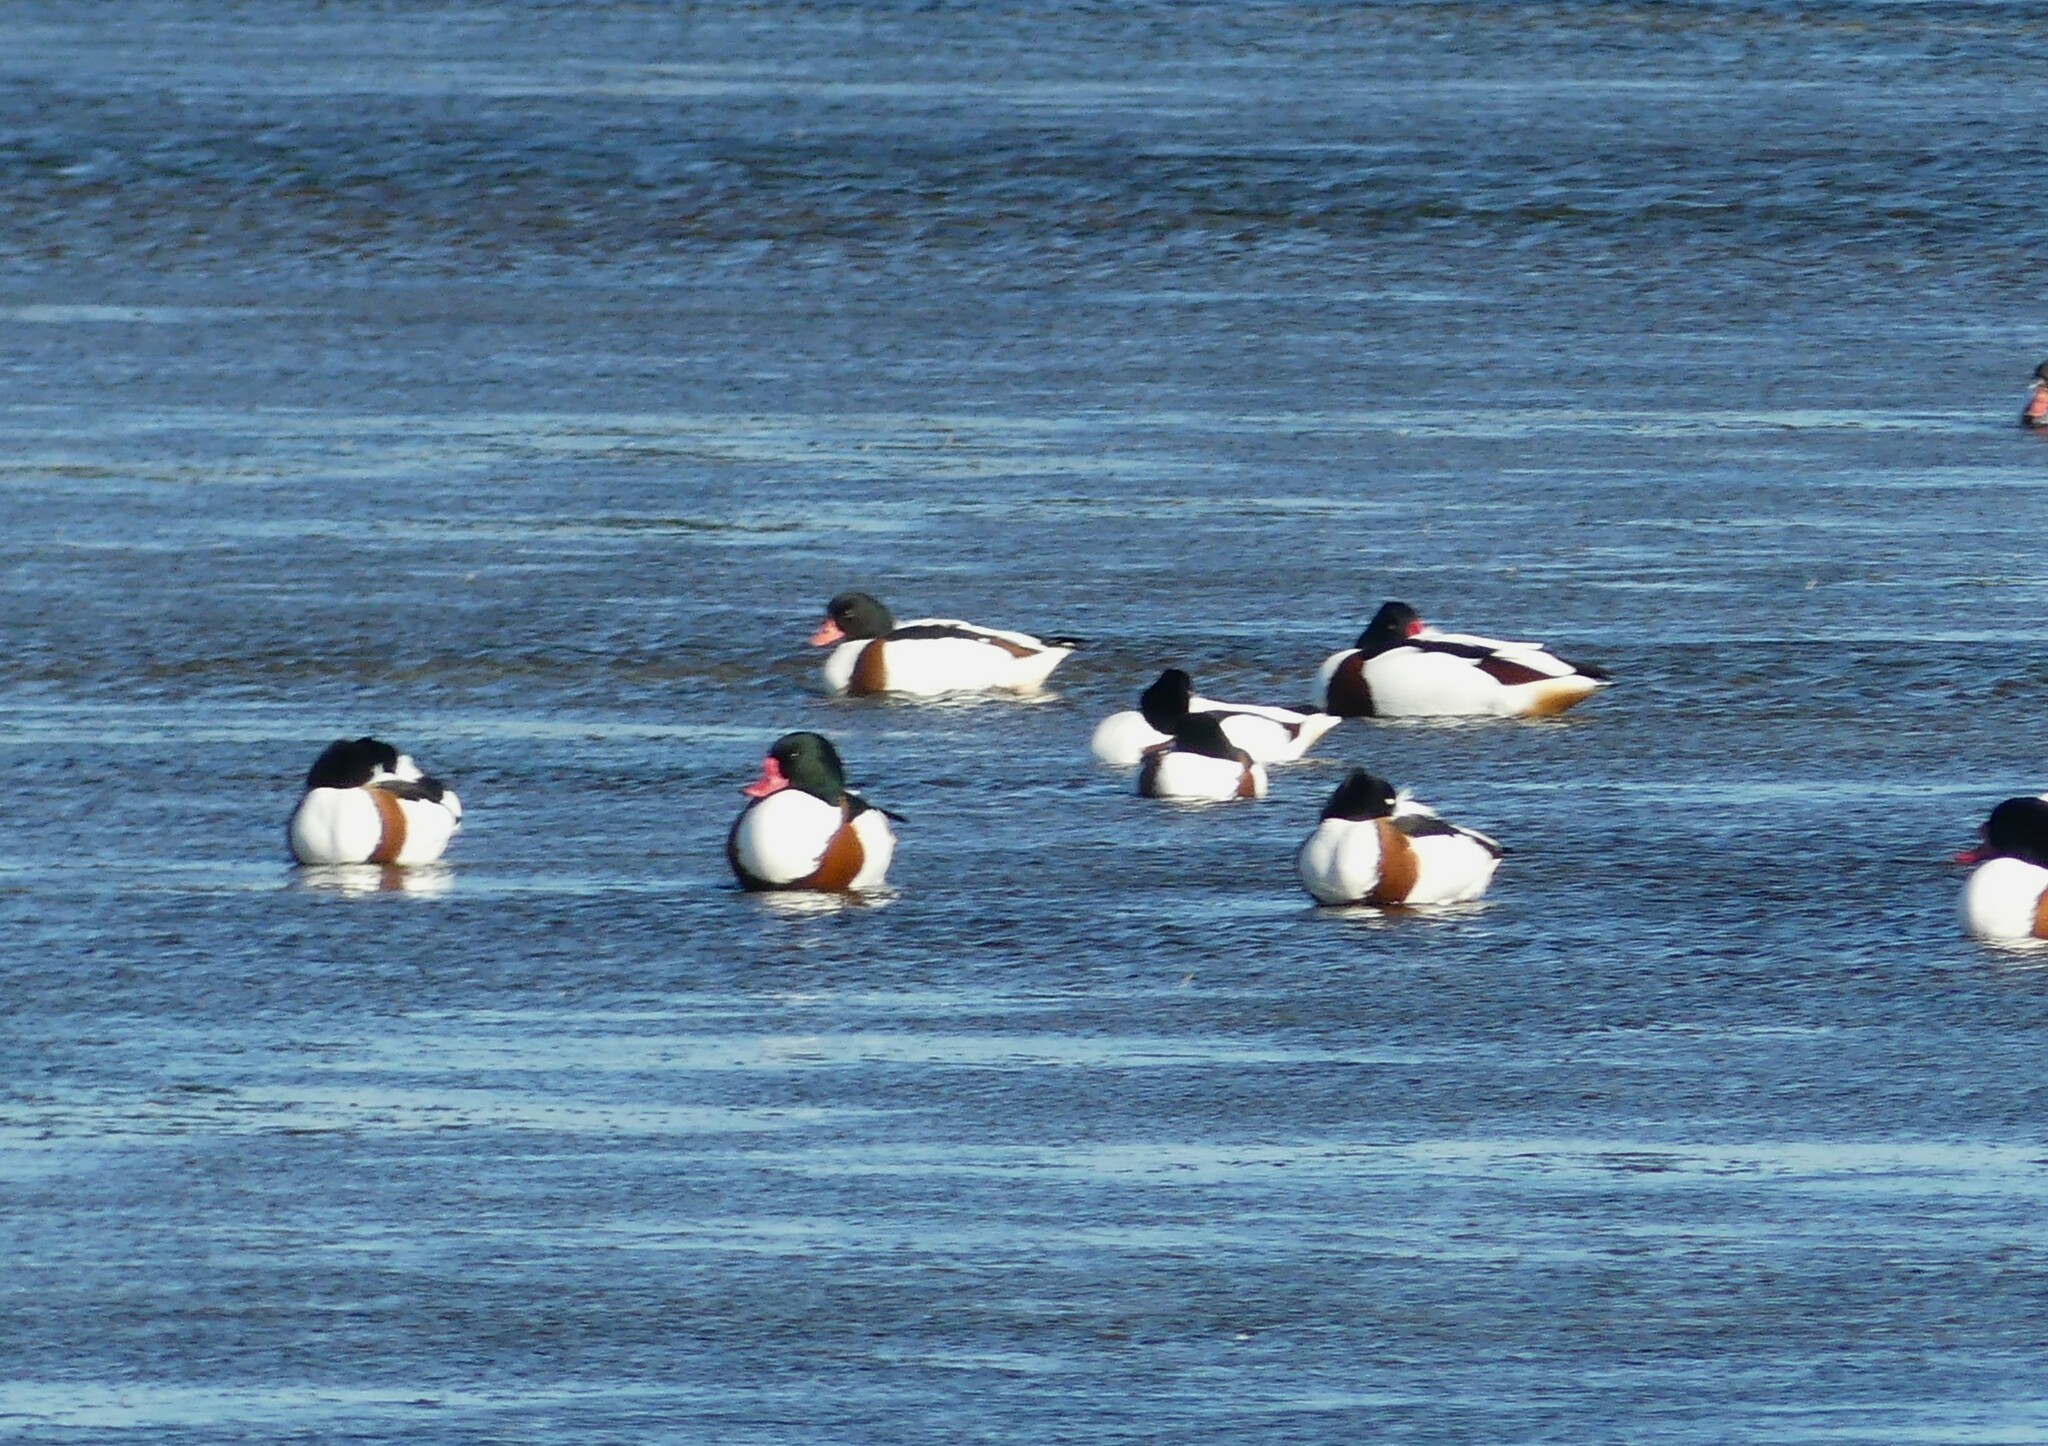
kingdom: Animalia
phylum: Chordata
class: Aves
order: Anseriformes
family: Anatidae
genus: Tadorna
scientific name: Tadorna tadorna
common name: Common shelduck
